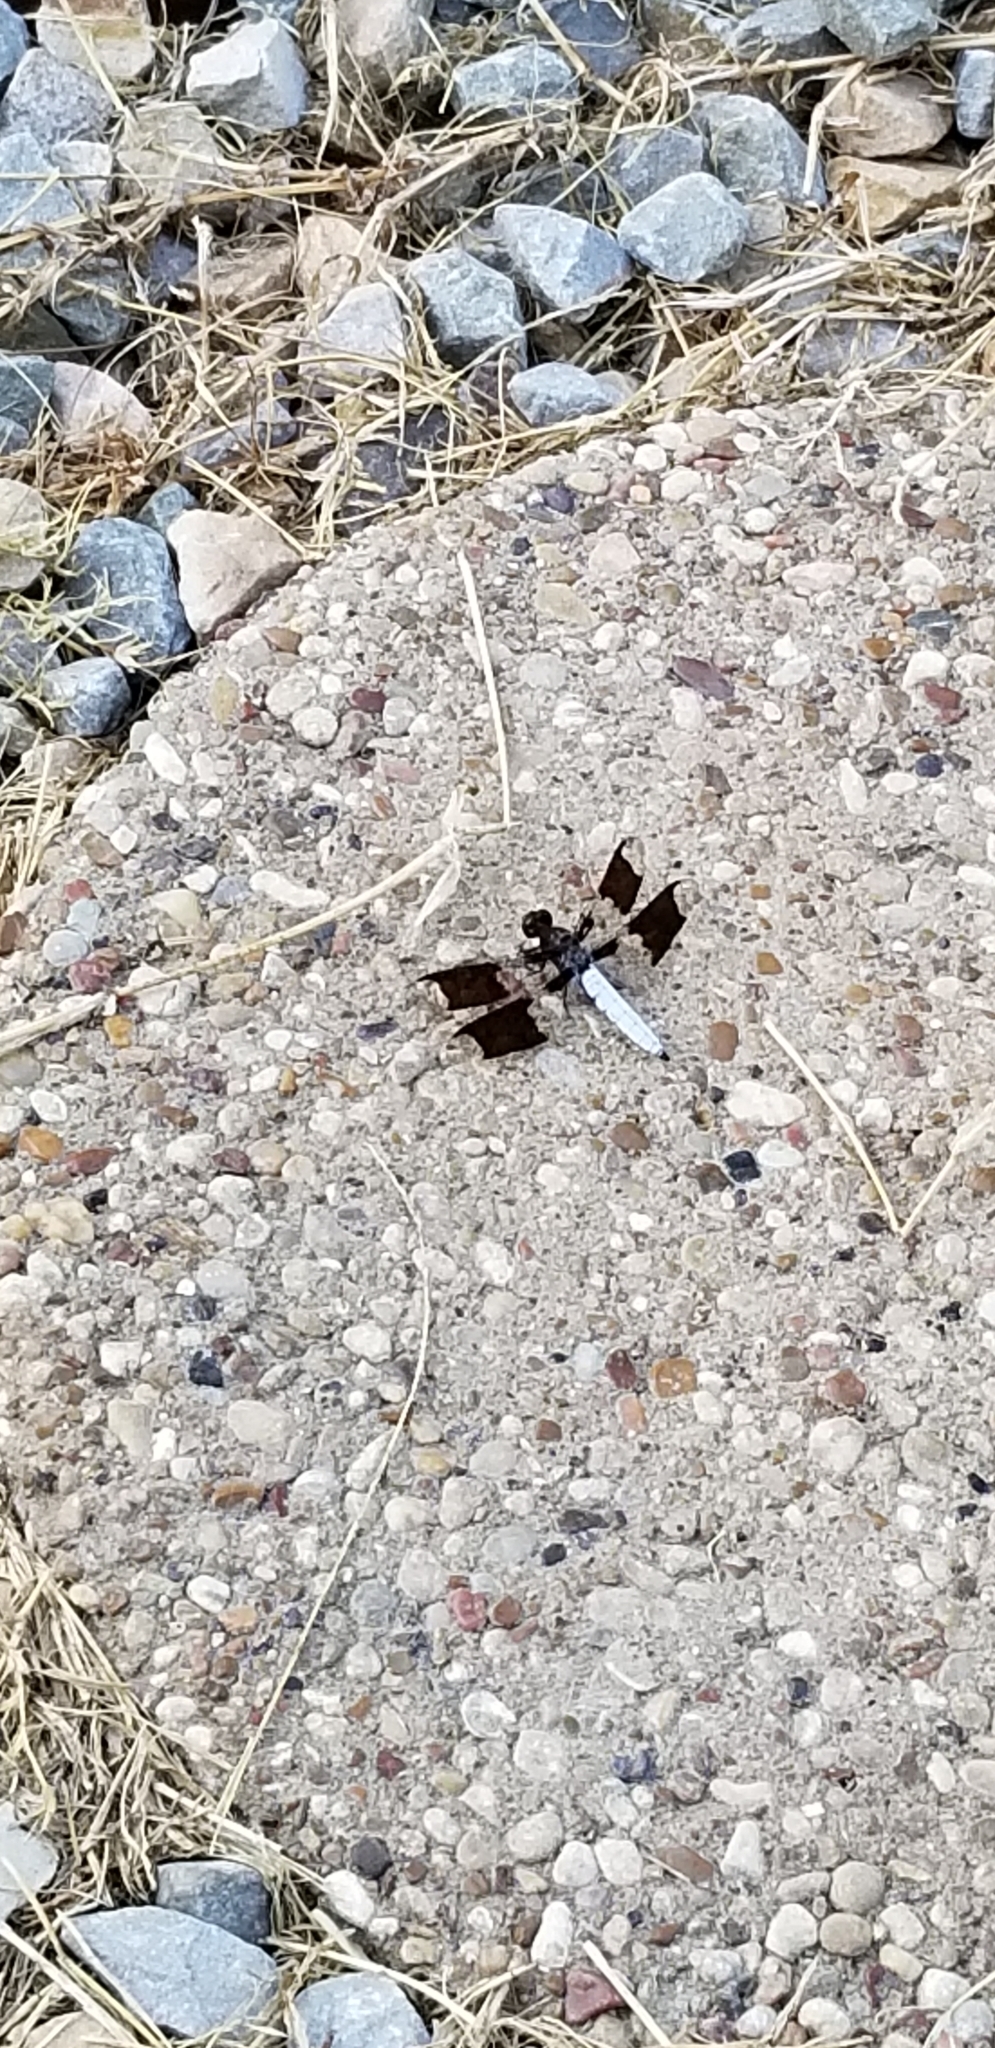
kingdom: Animalia
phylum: Arthropoda
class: Insecta
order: Odonata
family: Libellulidae
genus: Plathemis
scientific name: Plathemis lydia
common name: Common whitetail
